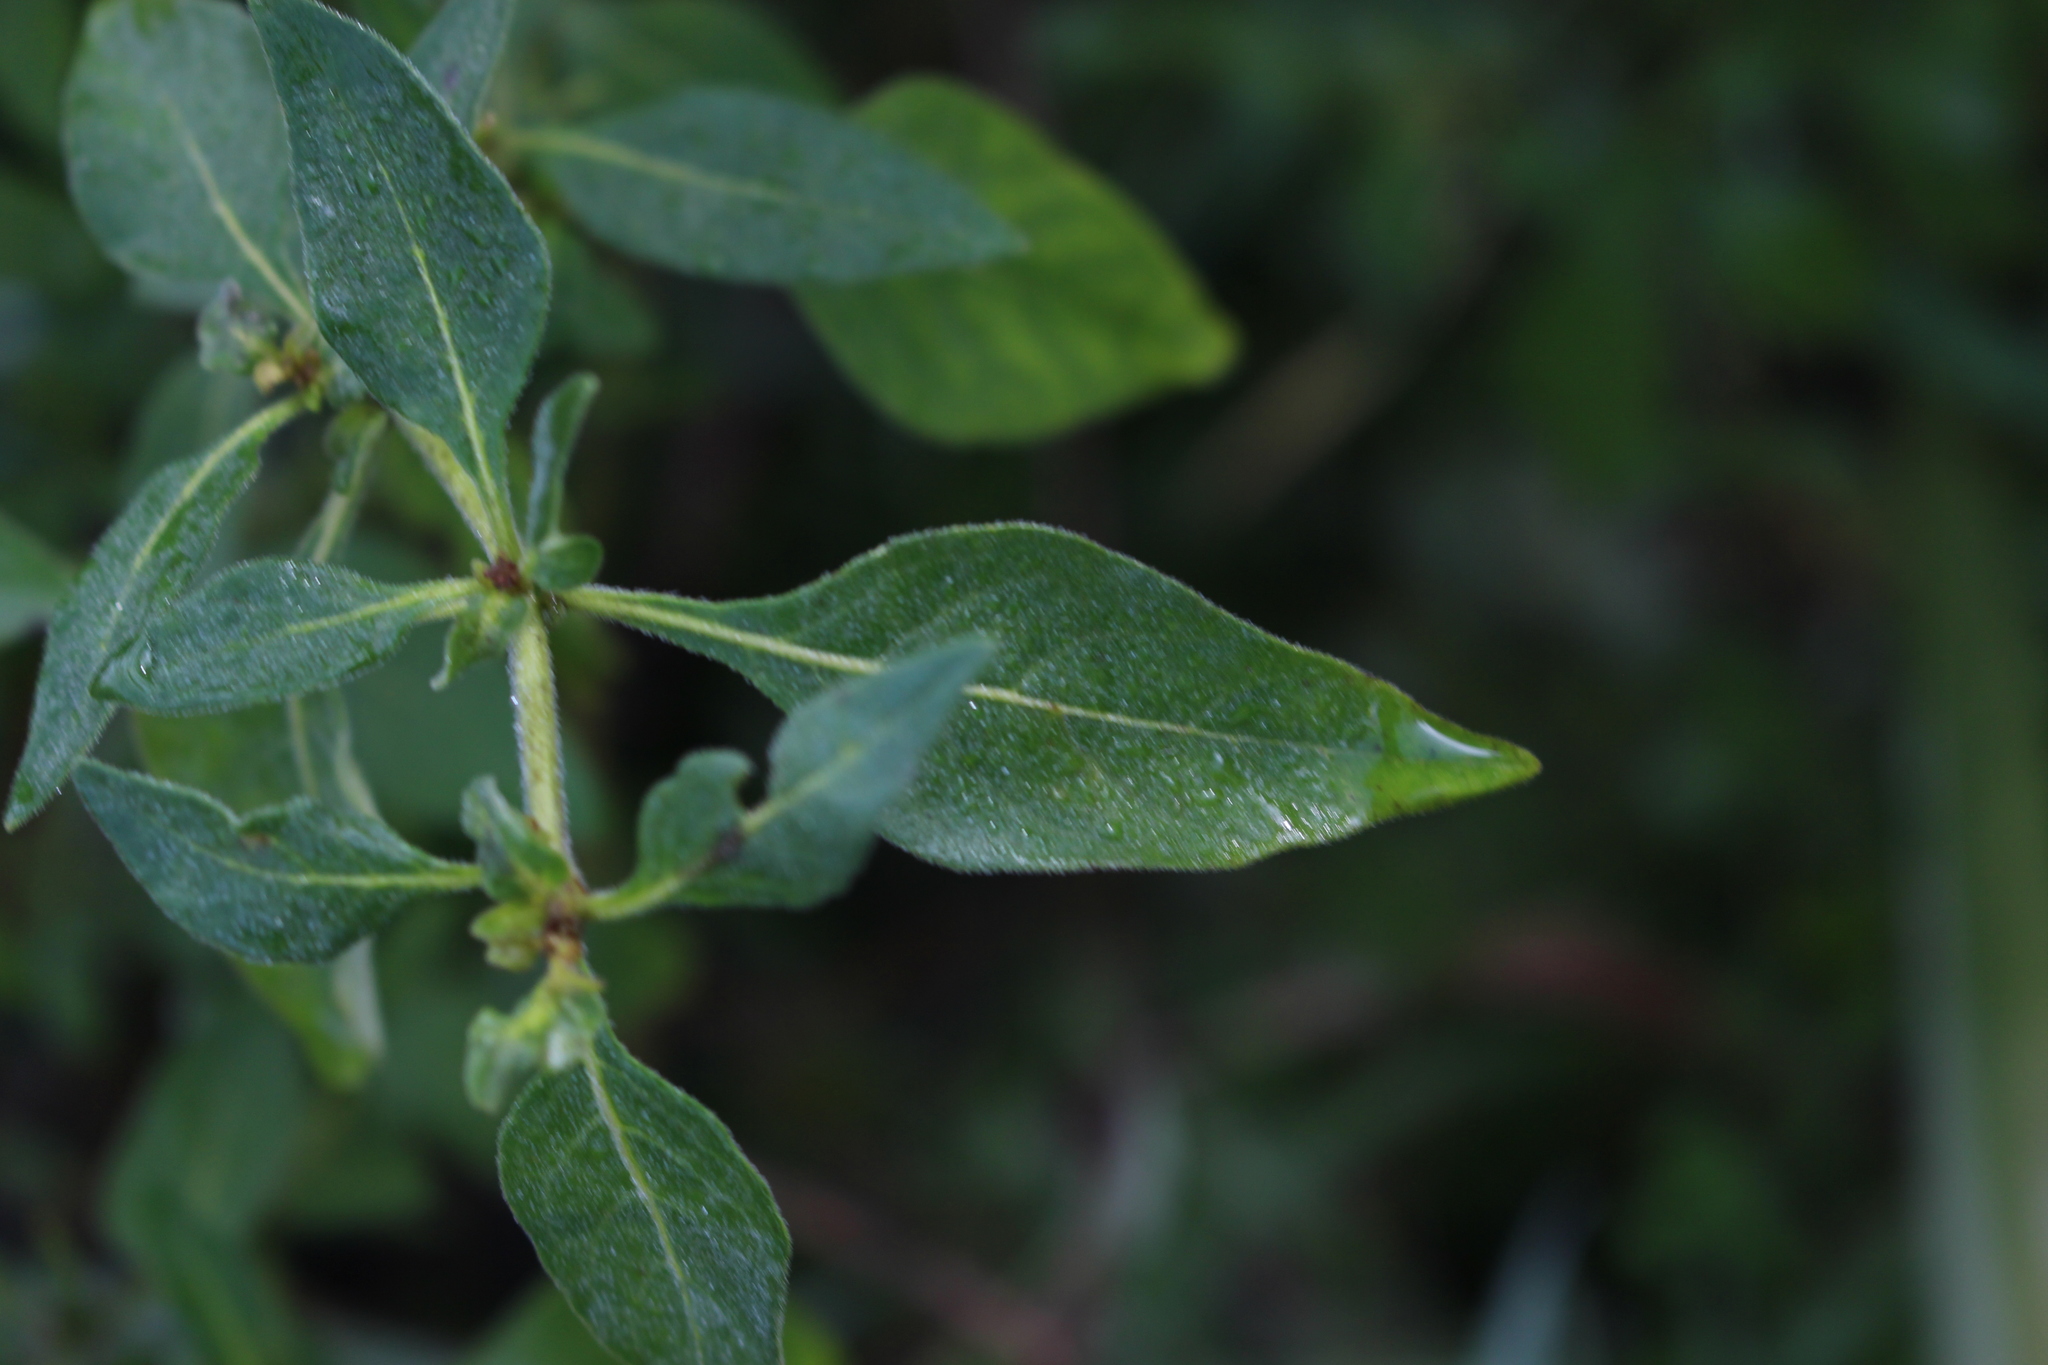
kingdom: Plantae
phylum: Tracheophyta
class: Magnoliopsida
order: Solanales
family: Solanaceae
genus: Solanum
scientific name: Solanum chenopodioides
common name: Tall nightshade
